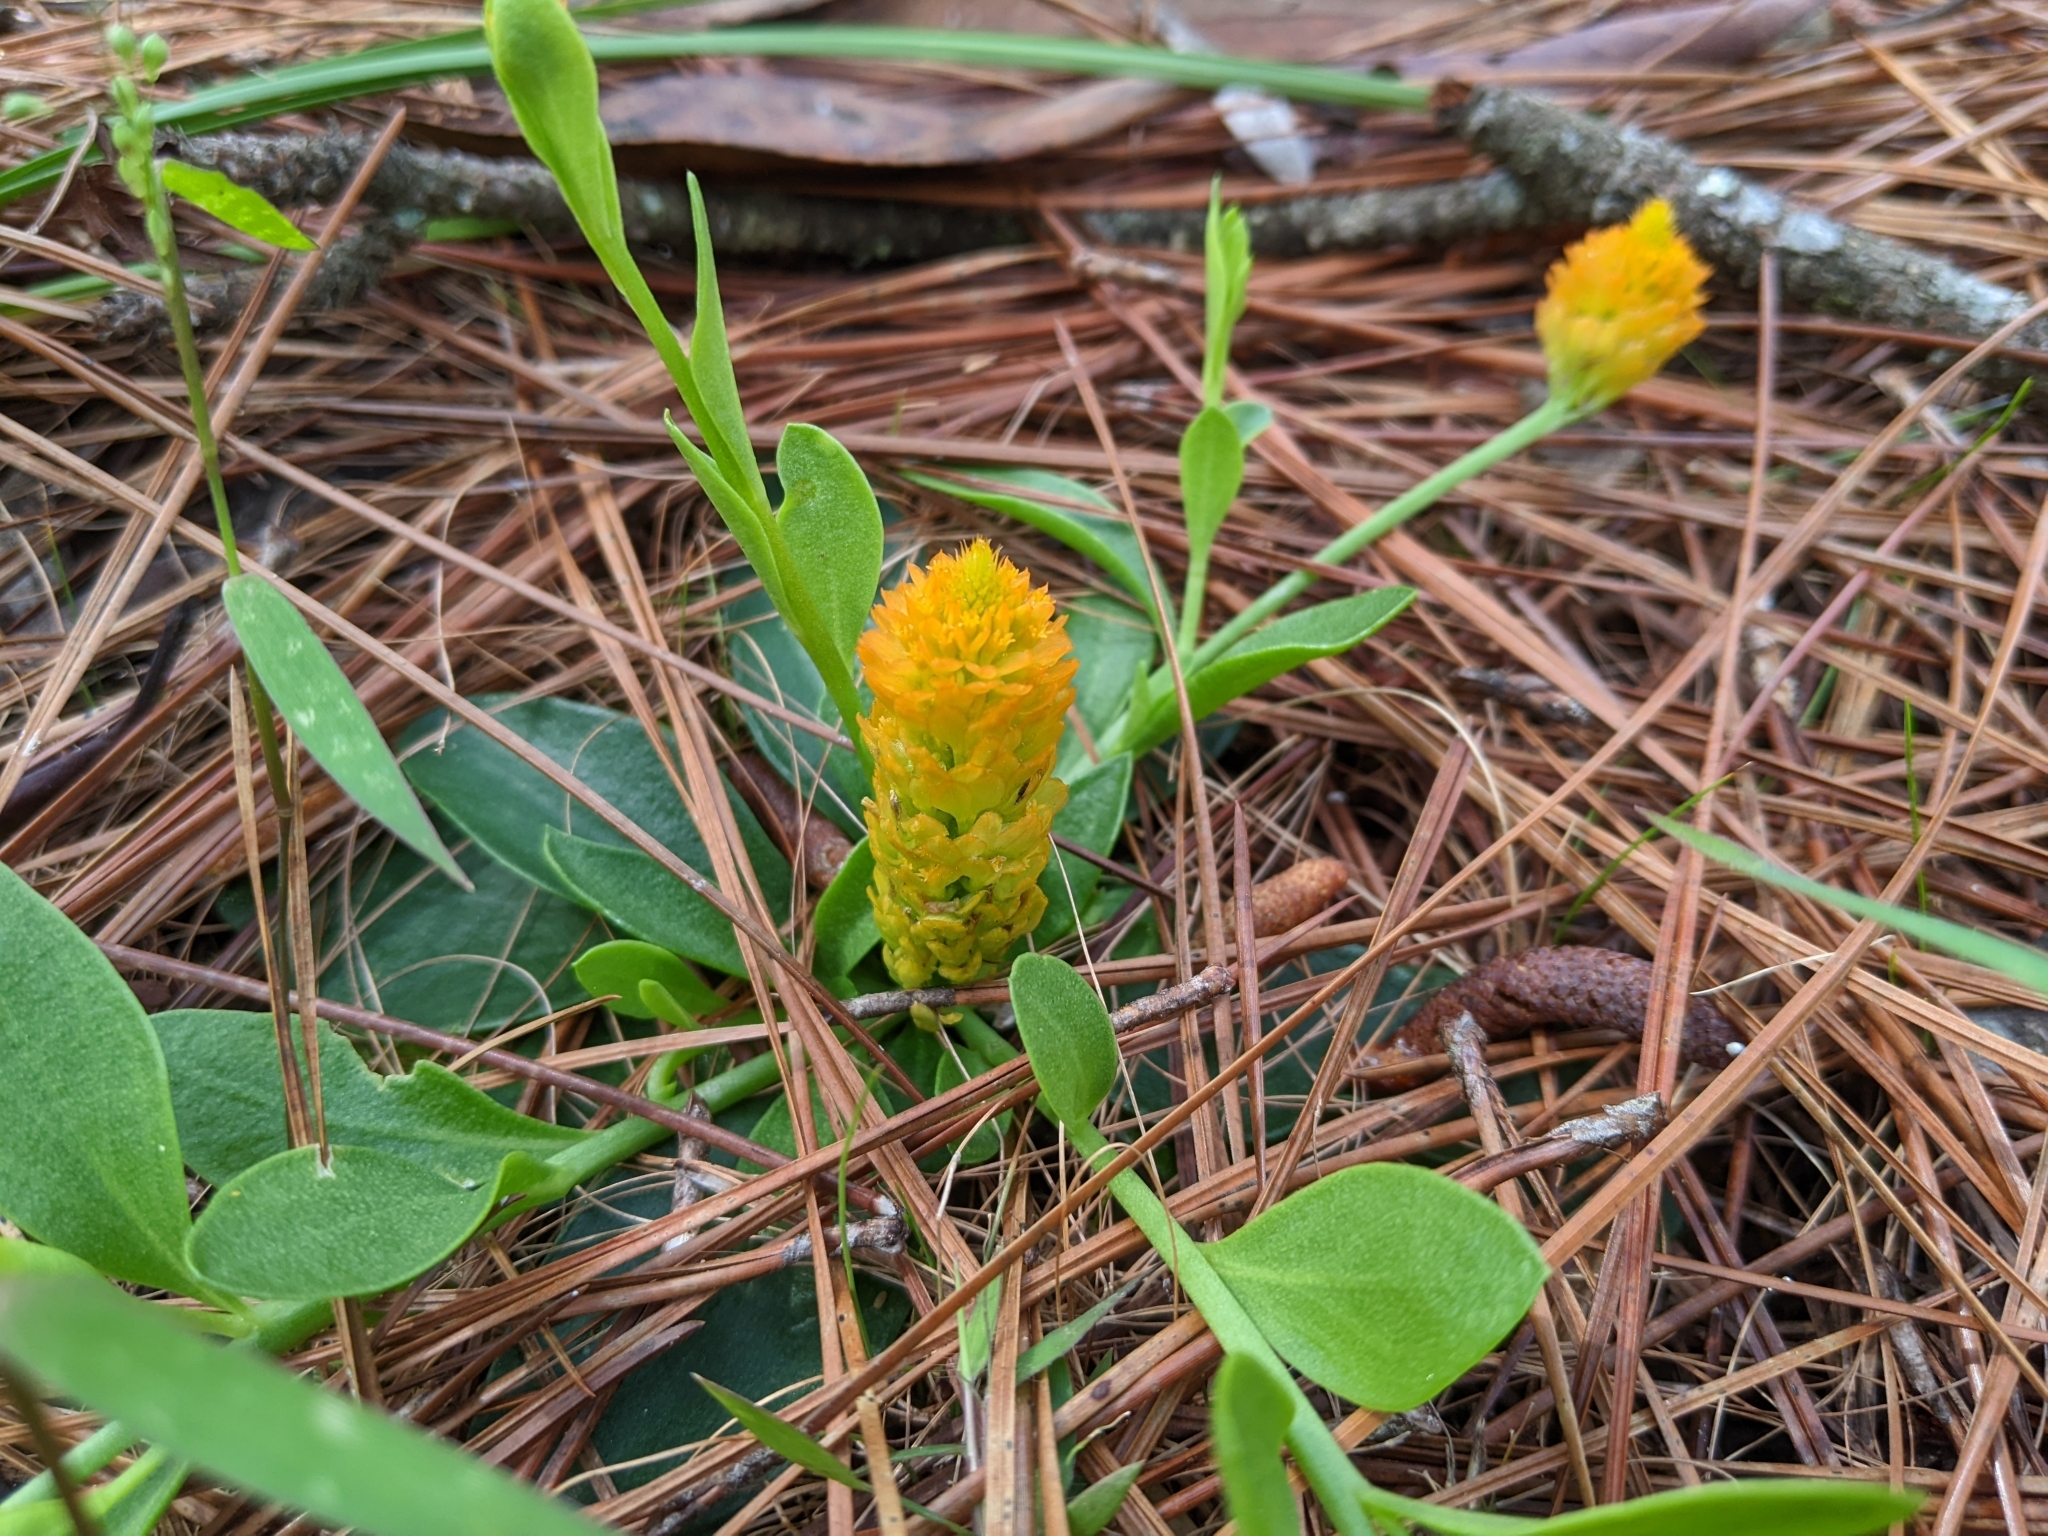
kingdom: Plantae
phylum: Tracheophyta
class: Magnoliopsida
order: Fabales
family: Polygalaceae
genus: Polygala
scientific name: Polygala lutea
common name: Orange milkwort
